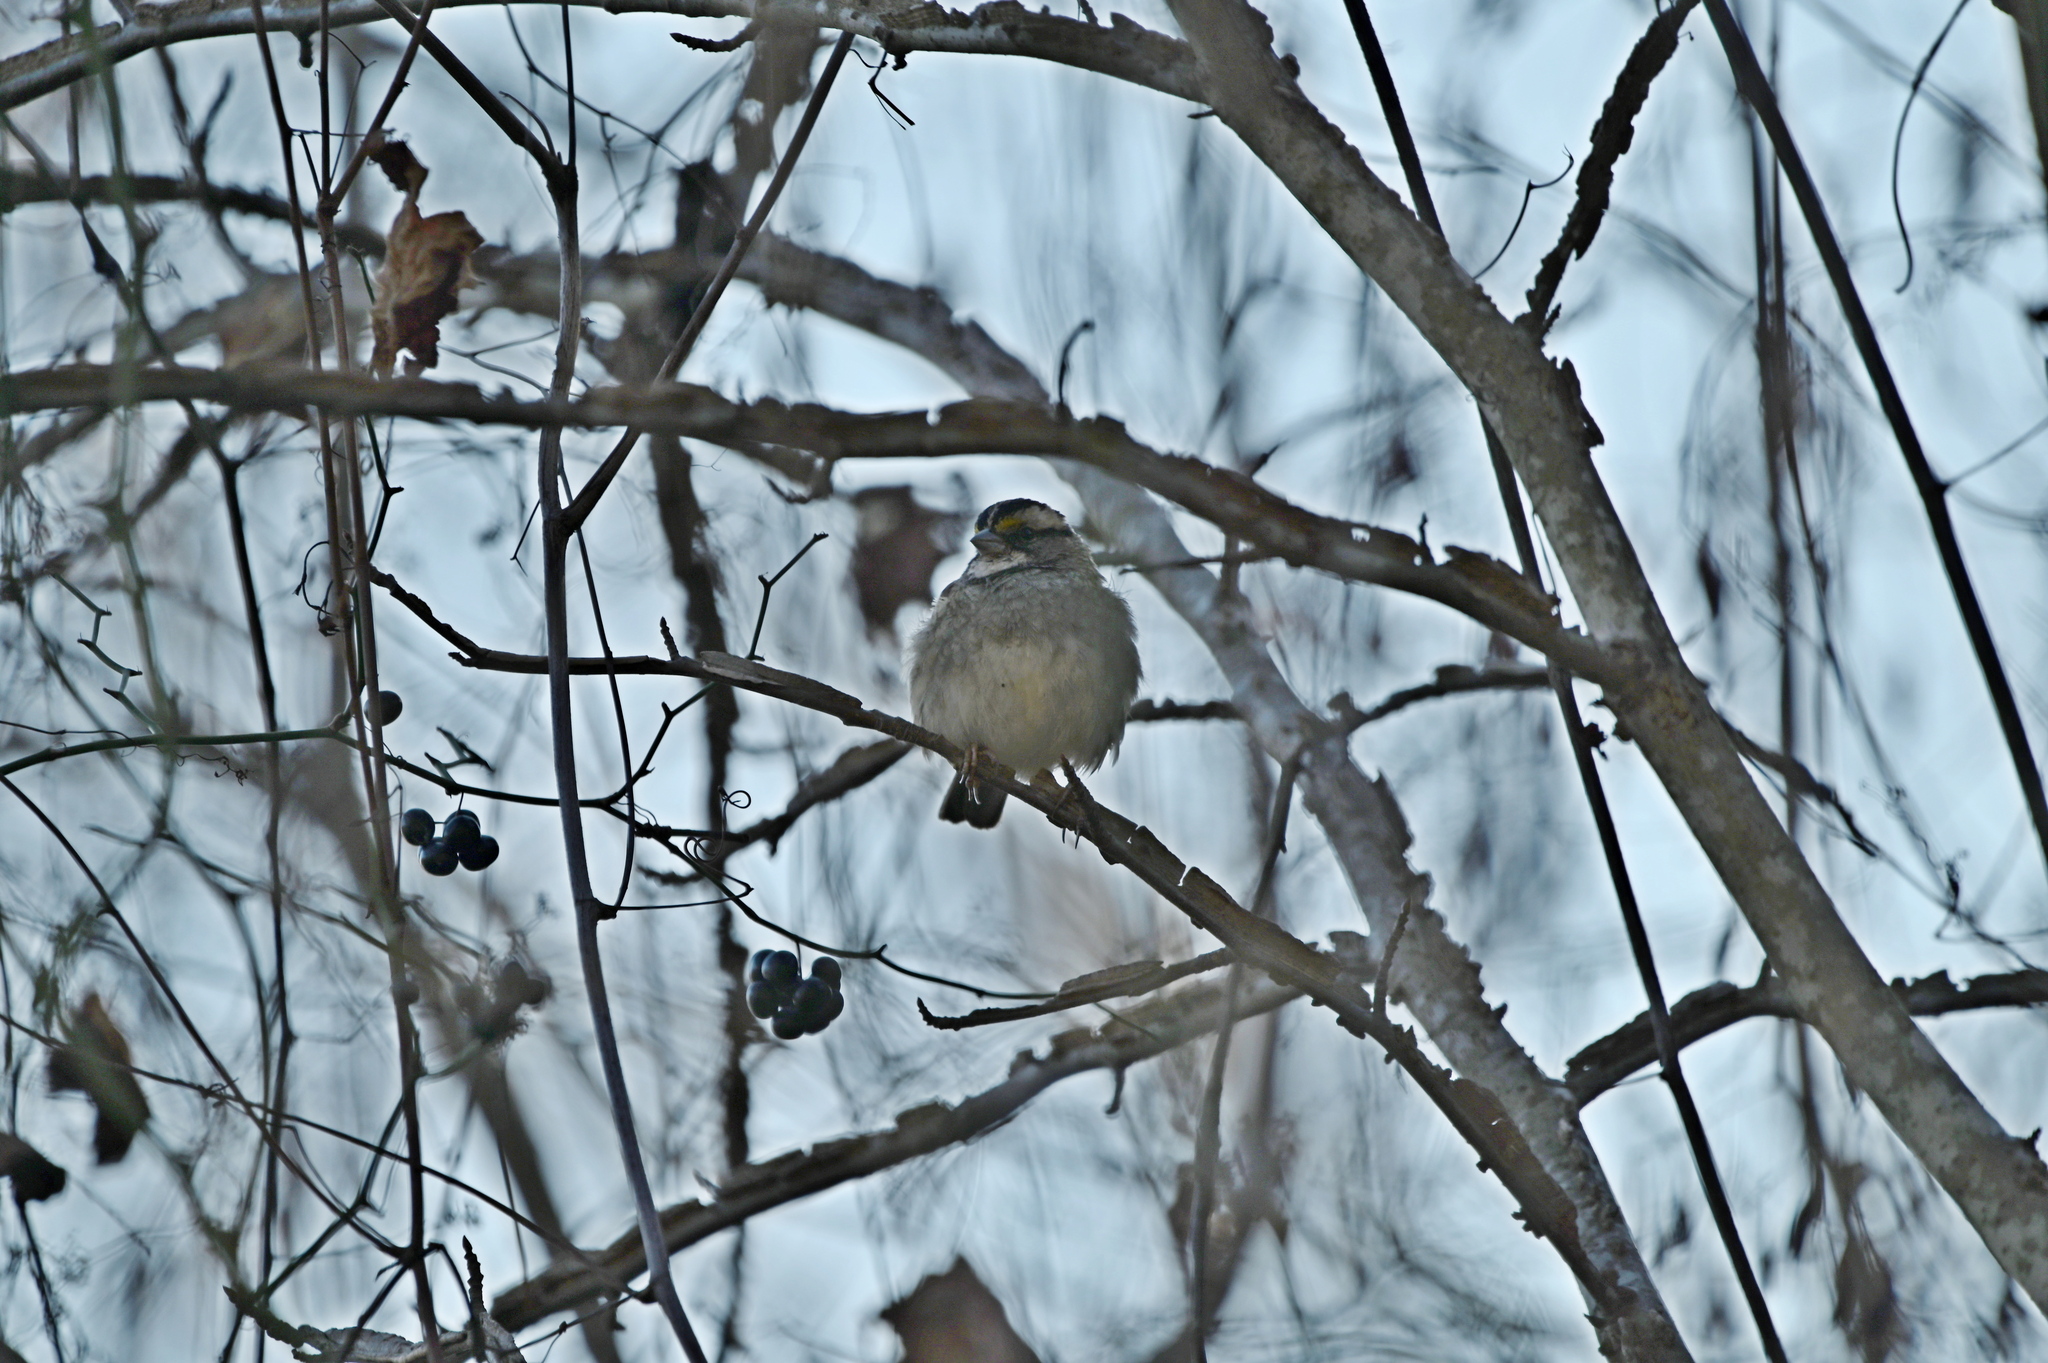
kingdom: Animalia
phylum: Chordata
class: Aves
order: Passeriformes
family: Passerellidae
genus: Zonotrichia
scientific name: Zonotrichia albicollis
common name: White-throated sparrow
